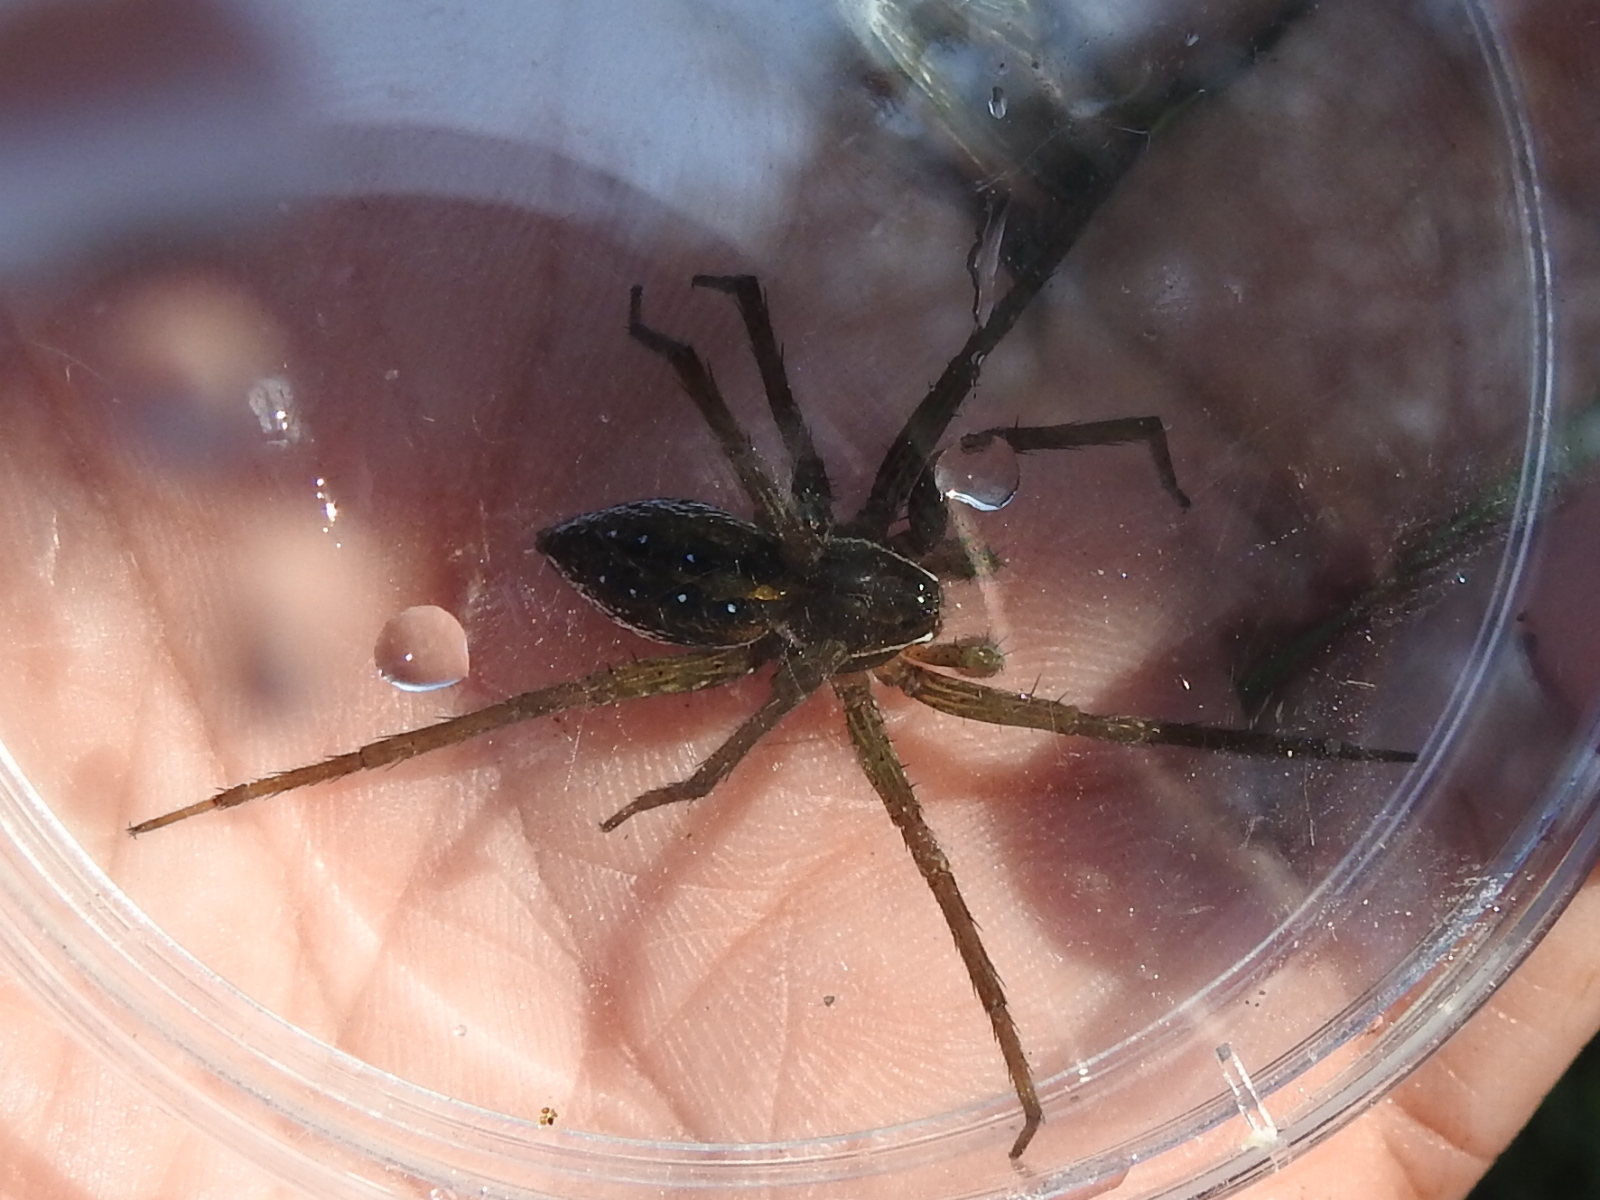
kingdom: Animalia
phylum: Arthropoda
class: Arachnida
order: Araneae
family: Pisauridae
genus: Dolomedes
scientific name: Dolomedes triton
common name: Six-spotted fishing spider
